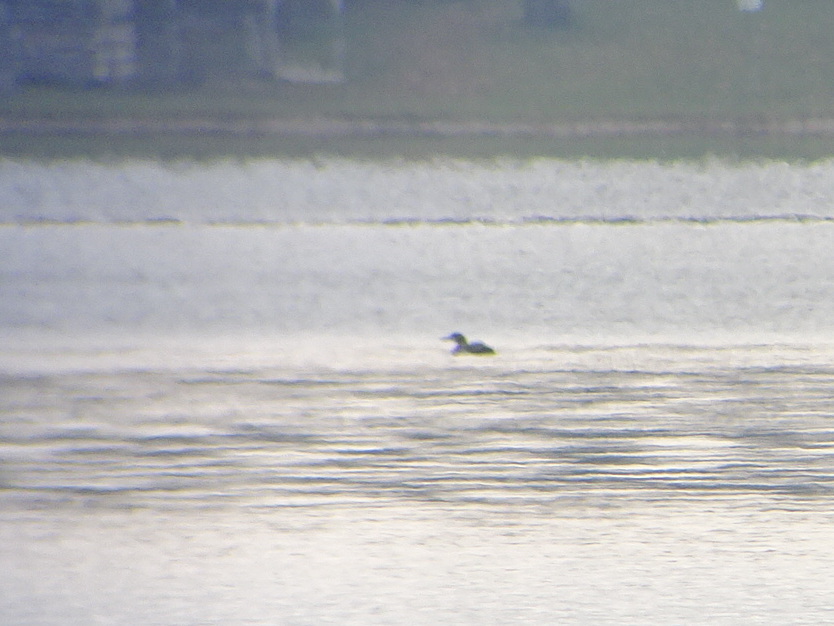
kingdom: Animalia
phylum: Chordata
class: Aves
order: Gaviiformes
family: Gaviidae
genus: Gavia
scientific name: Gavia immer
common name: Common loon
